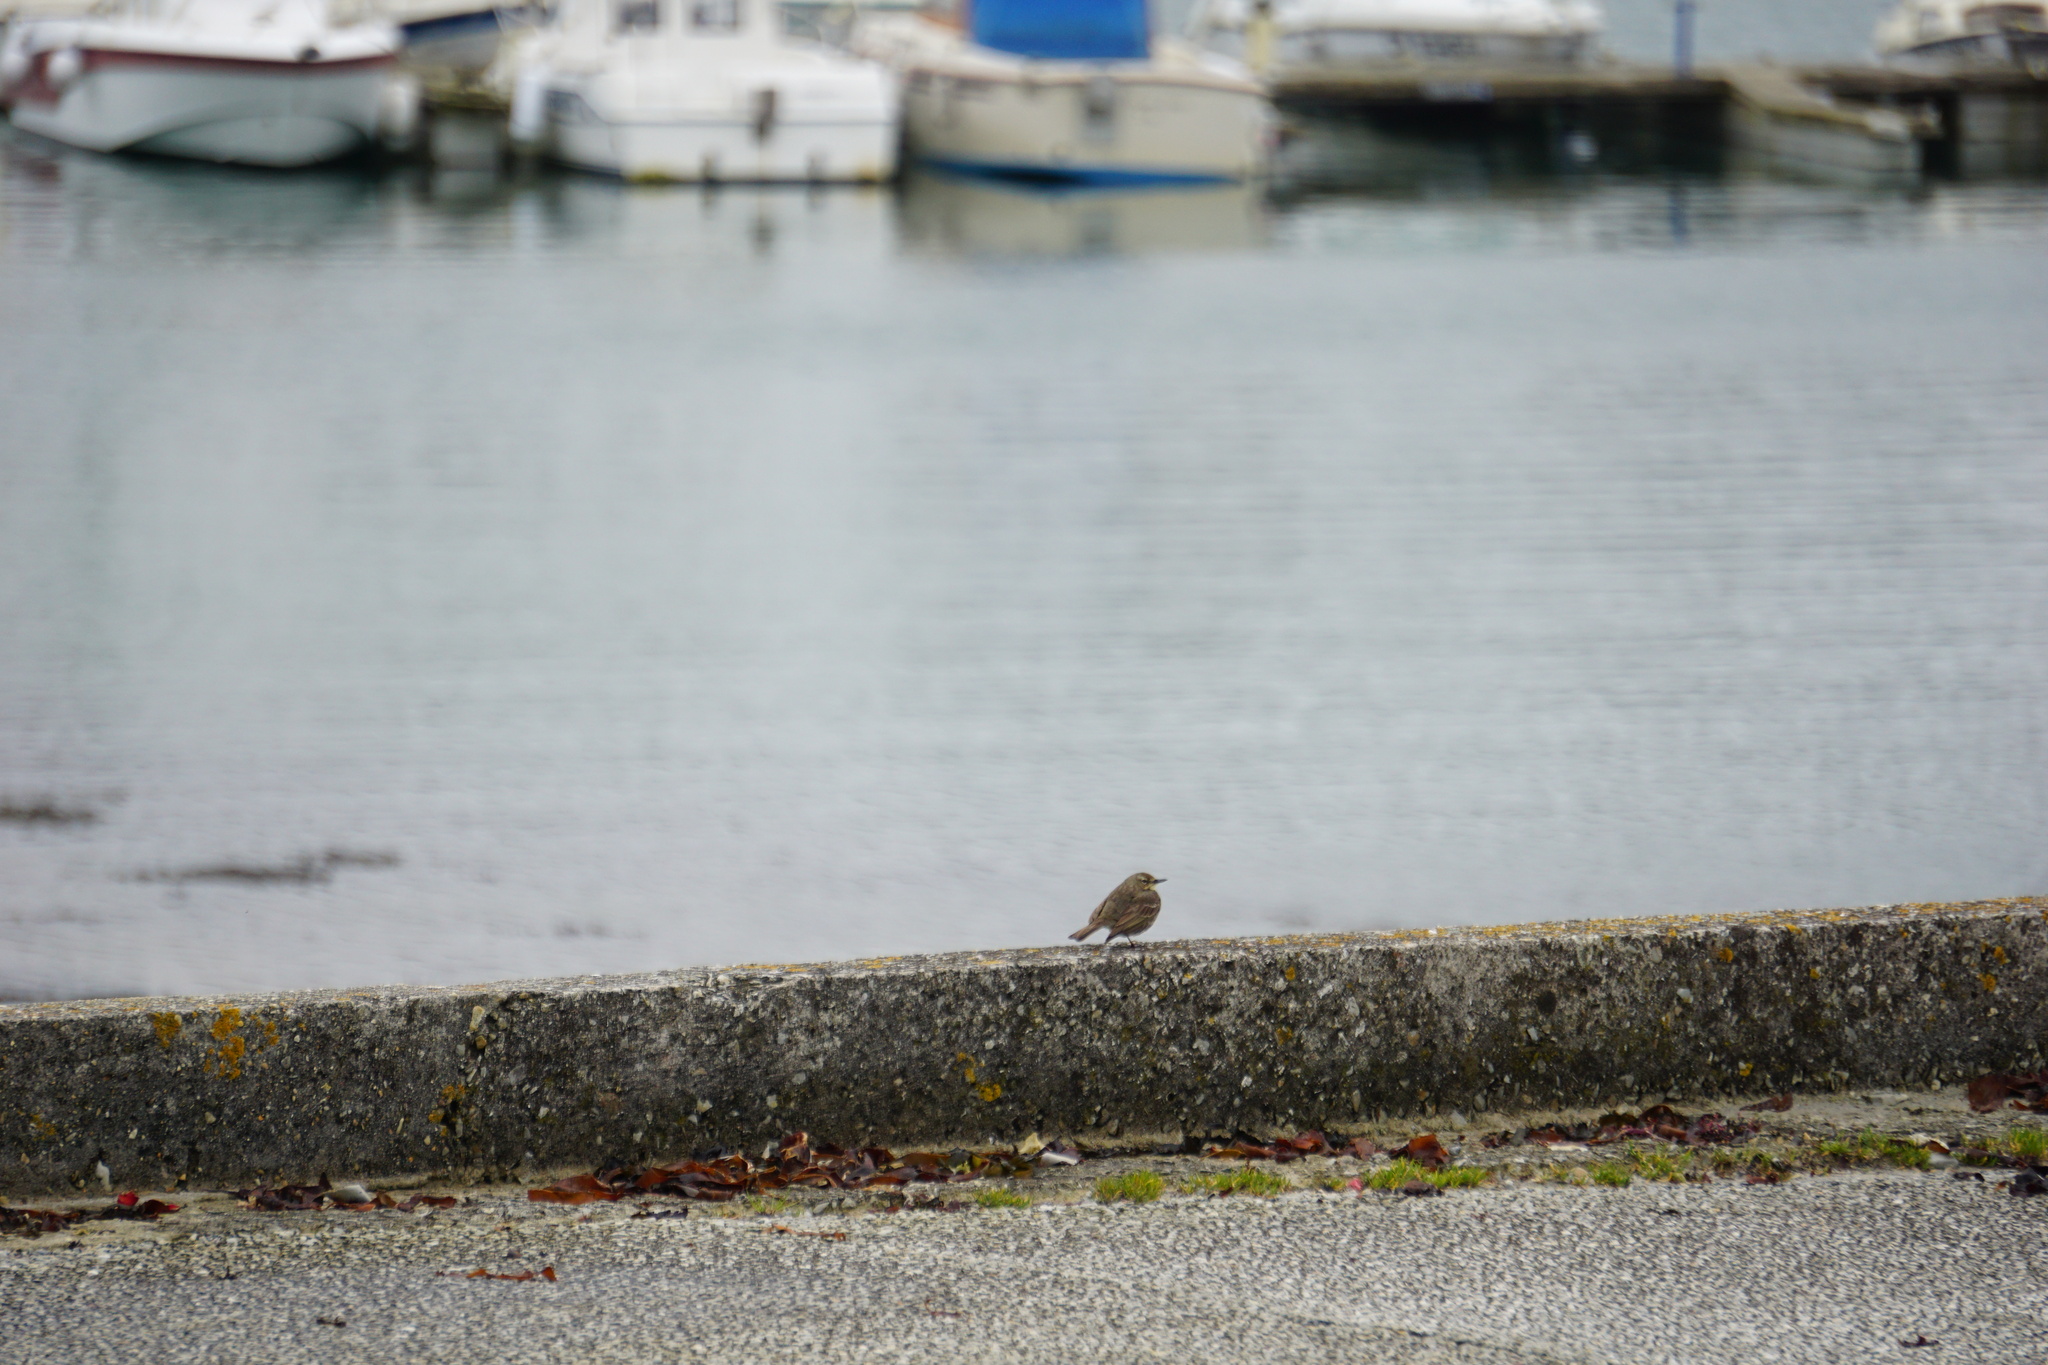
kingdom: Animalia
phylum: Chordata
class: Aves
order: Passeriformes
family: Motacillidae
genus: Anthus
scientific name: Anthus petrosus
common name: Eurasian rock pipit
